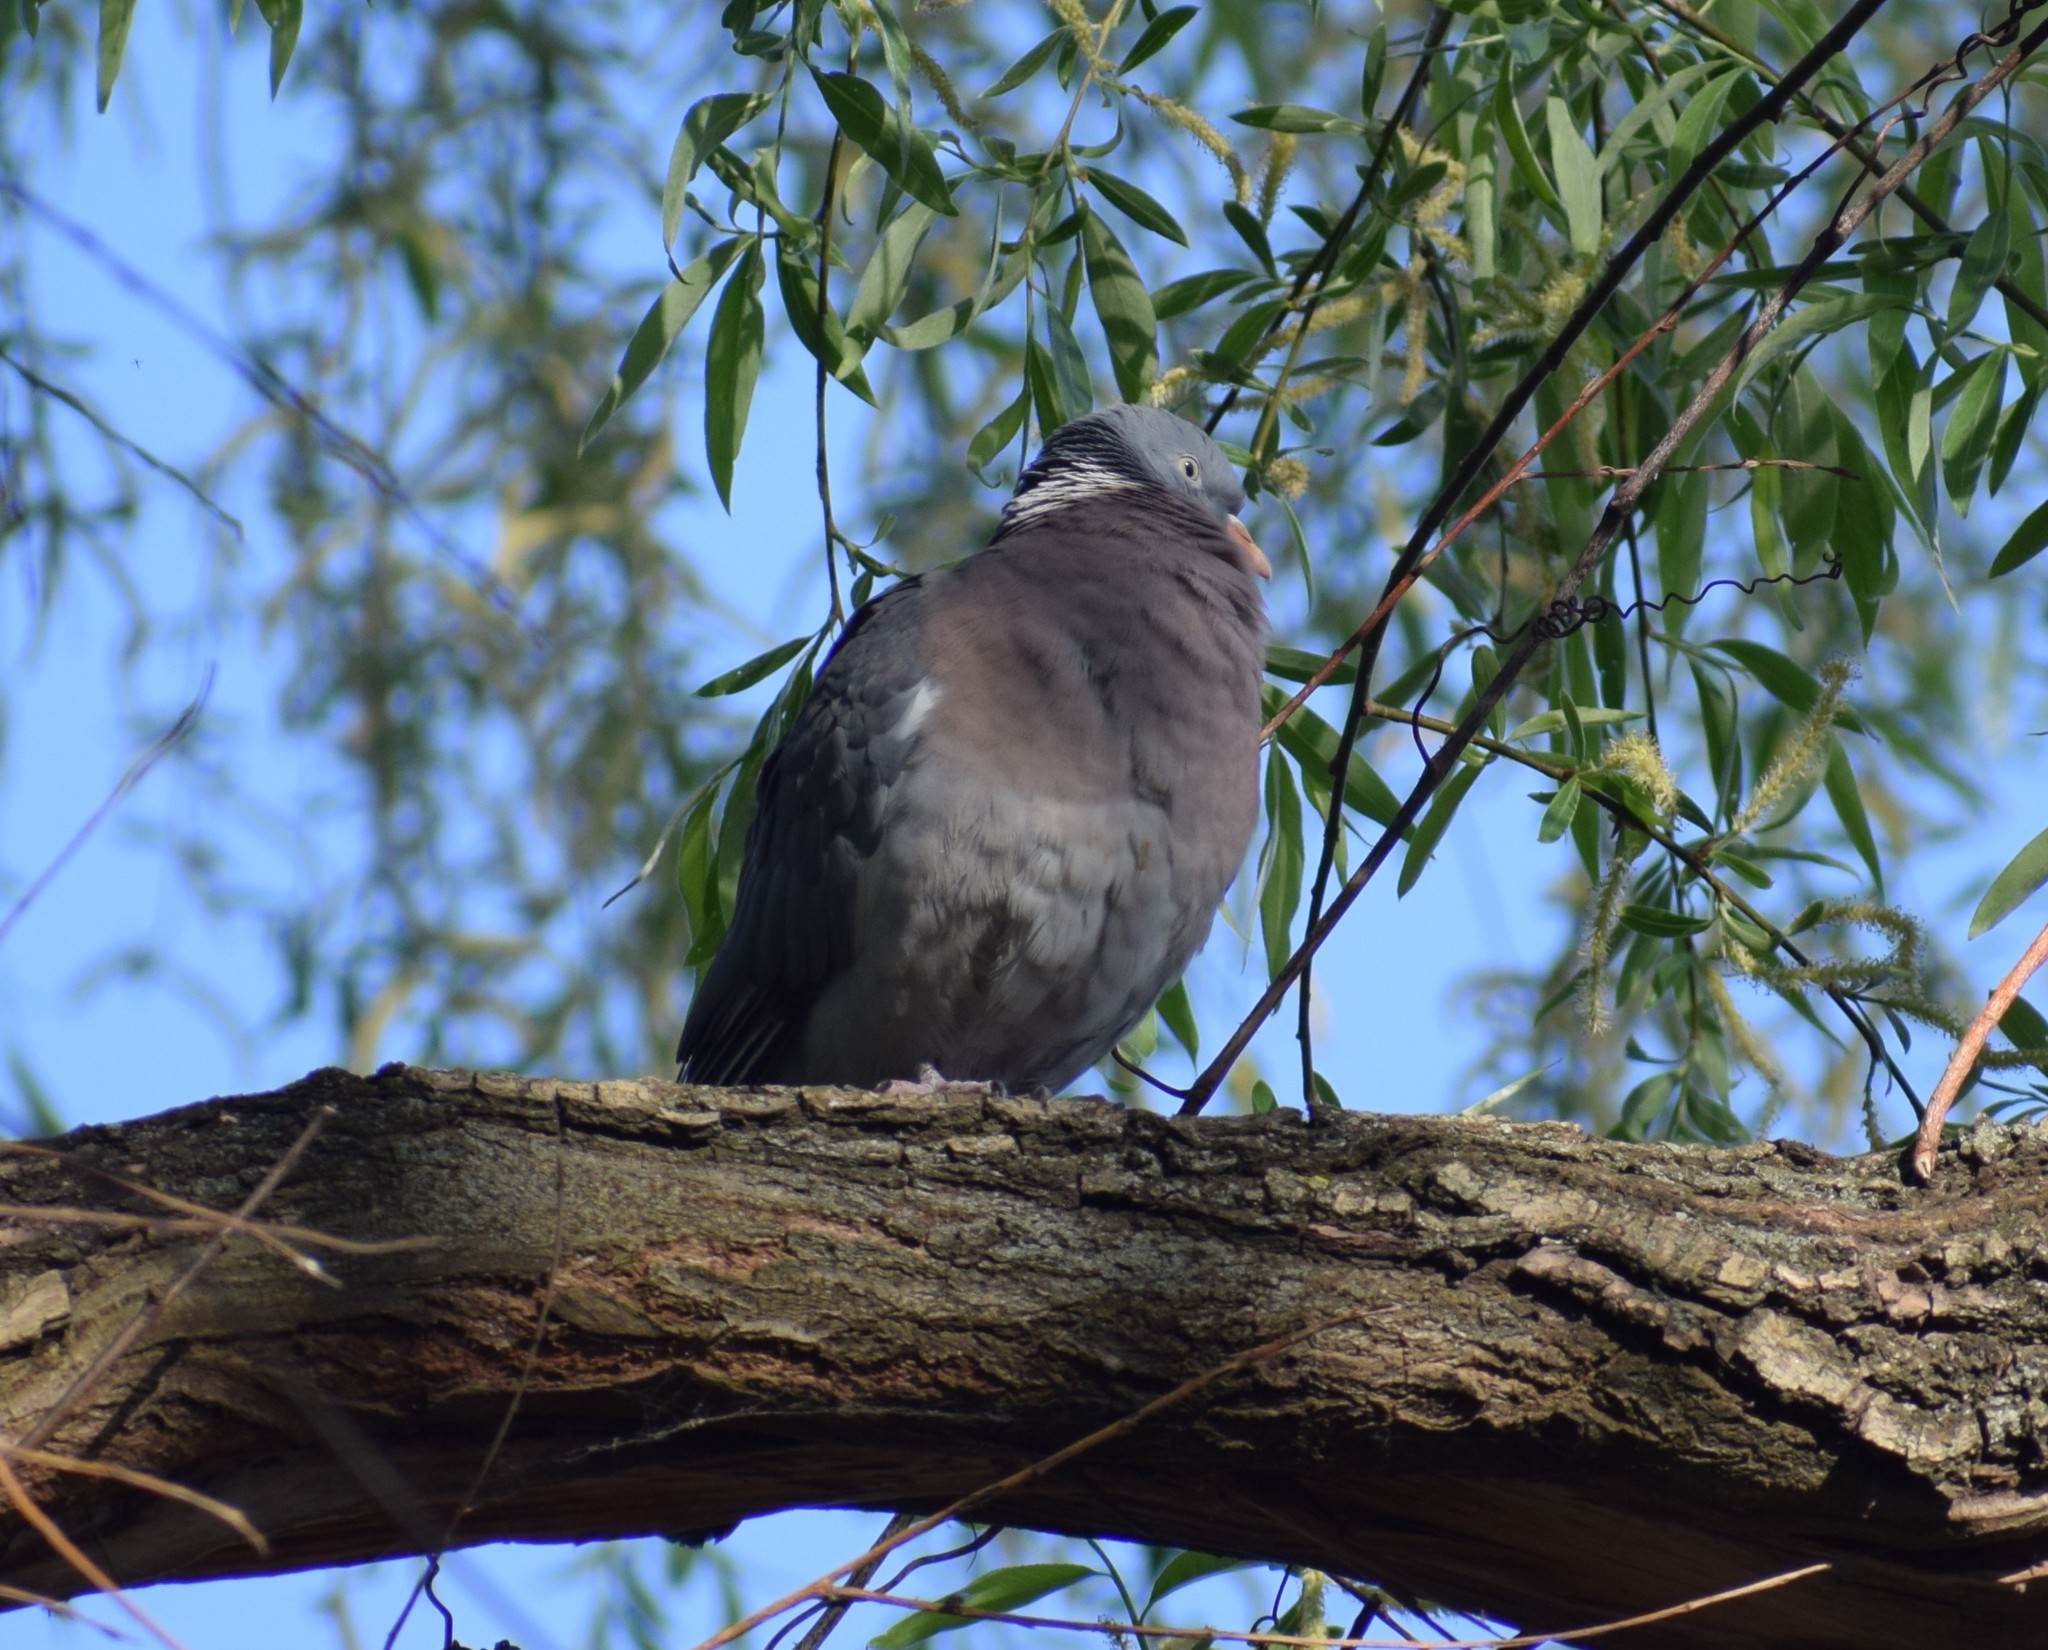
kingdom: Animalia
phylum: Chordata
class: Aves
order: Columbiformes
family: Columbidae
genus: Columba
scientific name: Columba palumbus
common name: Common wood pigeon
